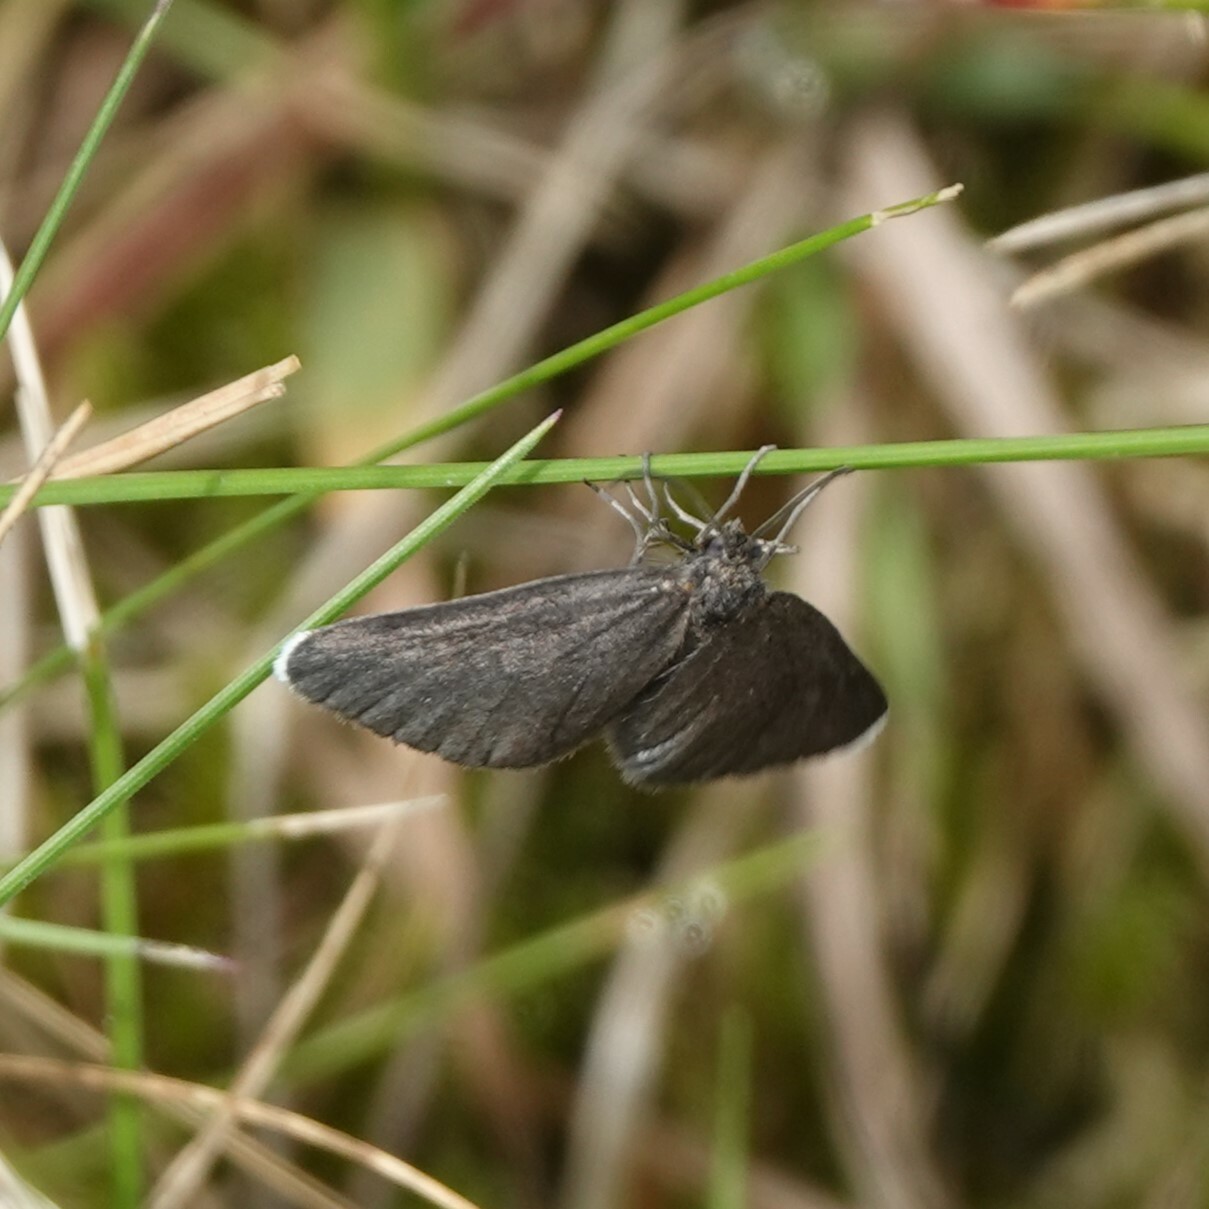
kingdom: Animalia
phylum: Arthropoda
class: Insecta
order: Lepidoptera
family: Geometridae
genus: Odezia
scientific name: Odezia atrata
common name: Chimney sweeper
